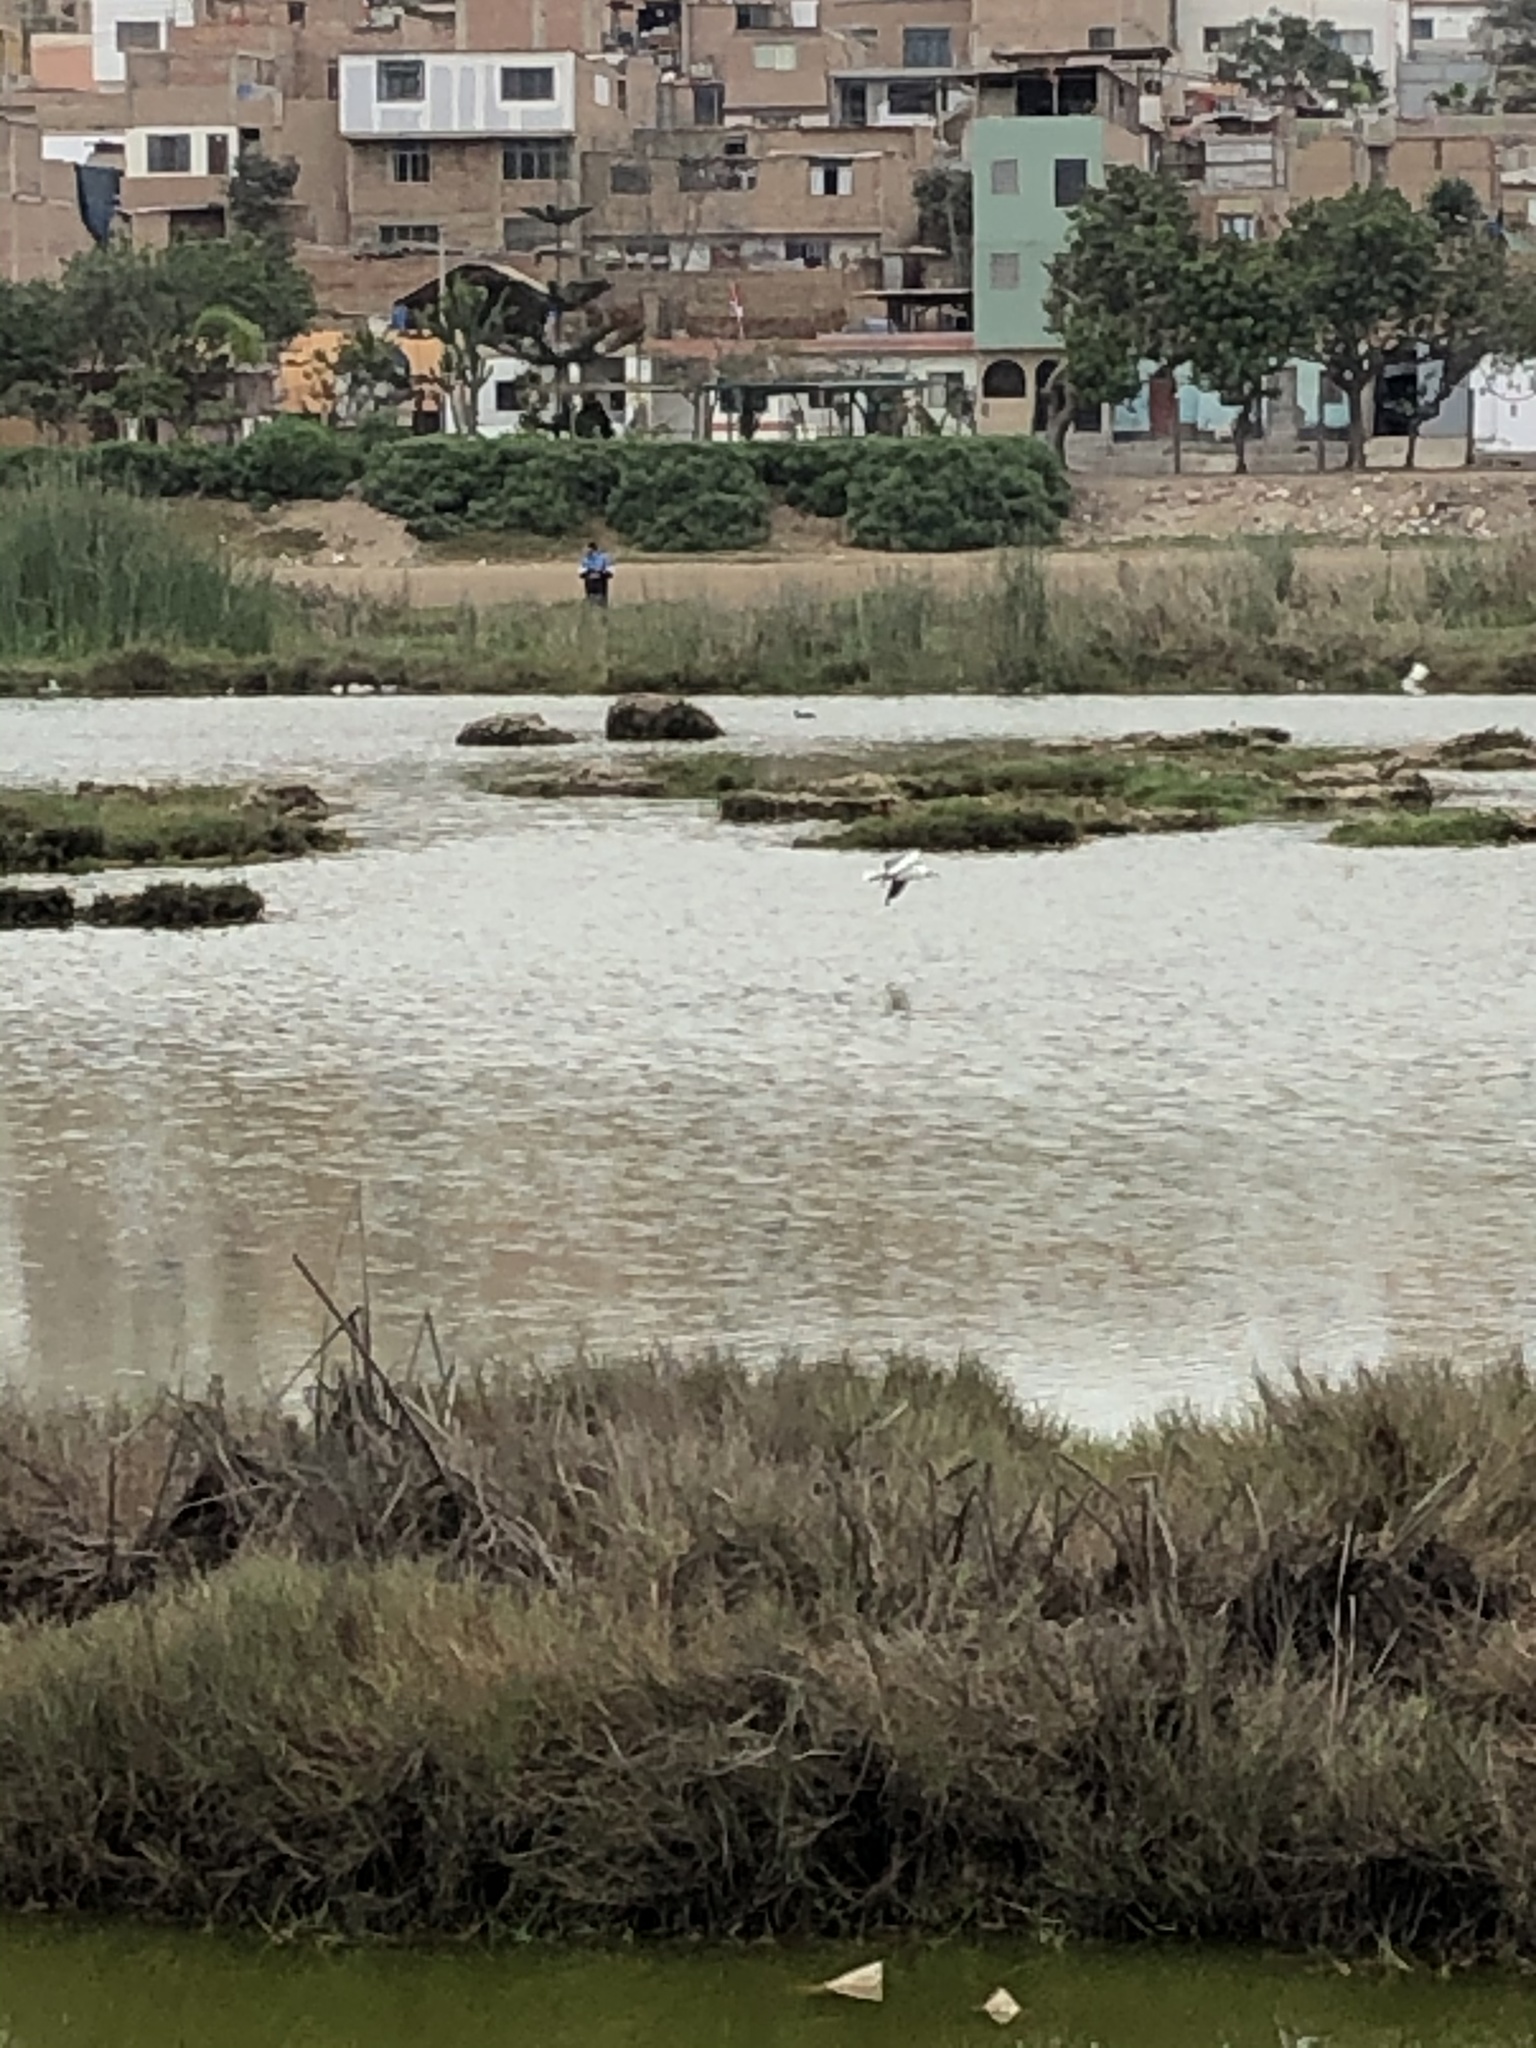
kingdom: Animalia
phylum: Chordata
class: Aves
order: Charadriiformes
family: Laridae
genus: Chroicocephalus
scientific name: Chroicocephalus cirrocephalus
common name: Grey-headed gull
